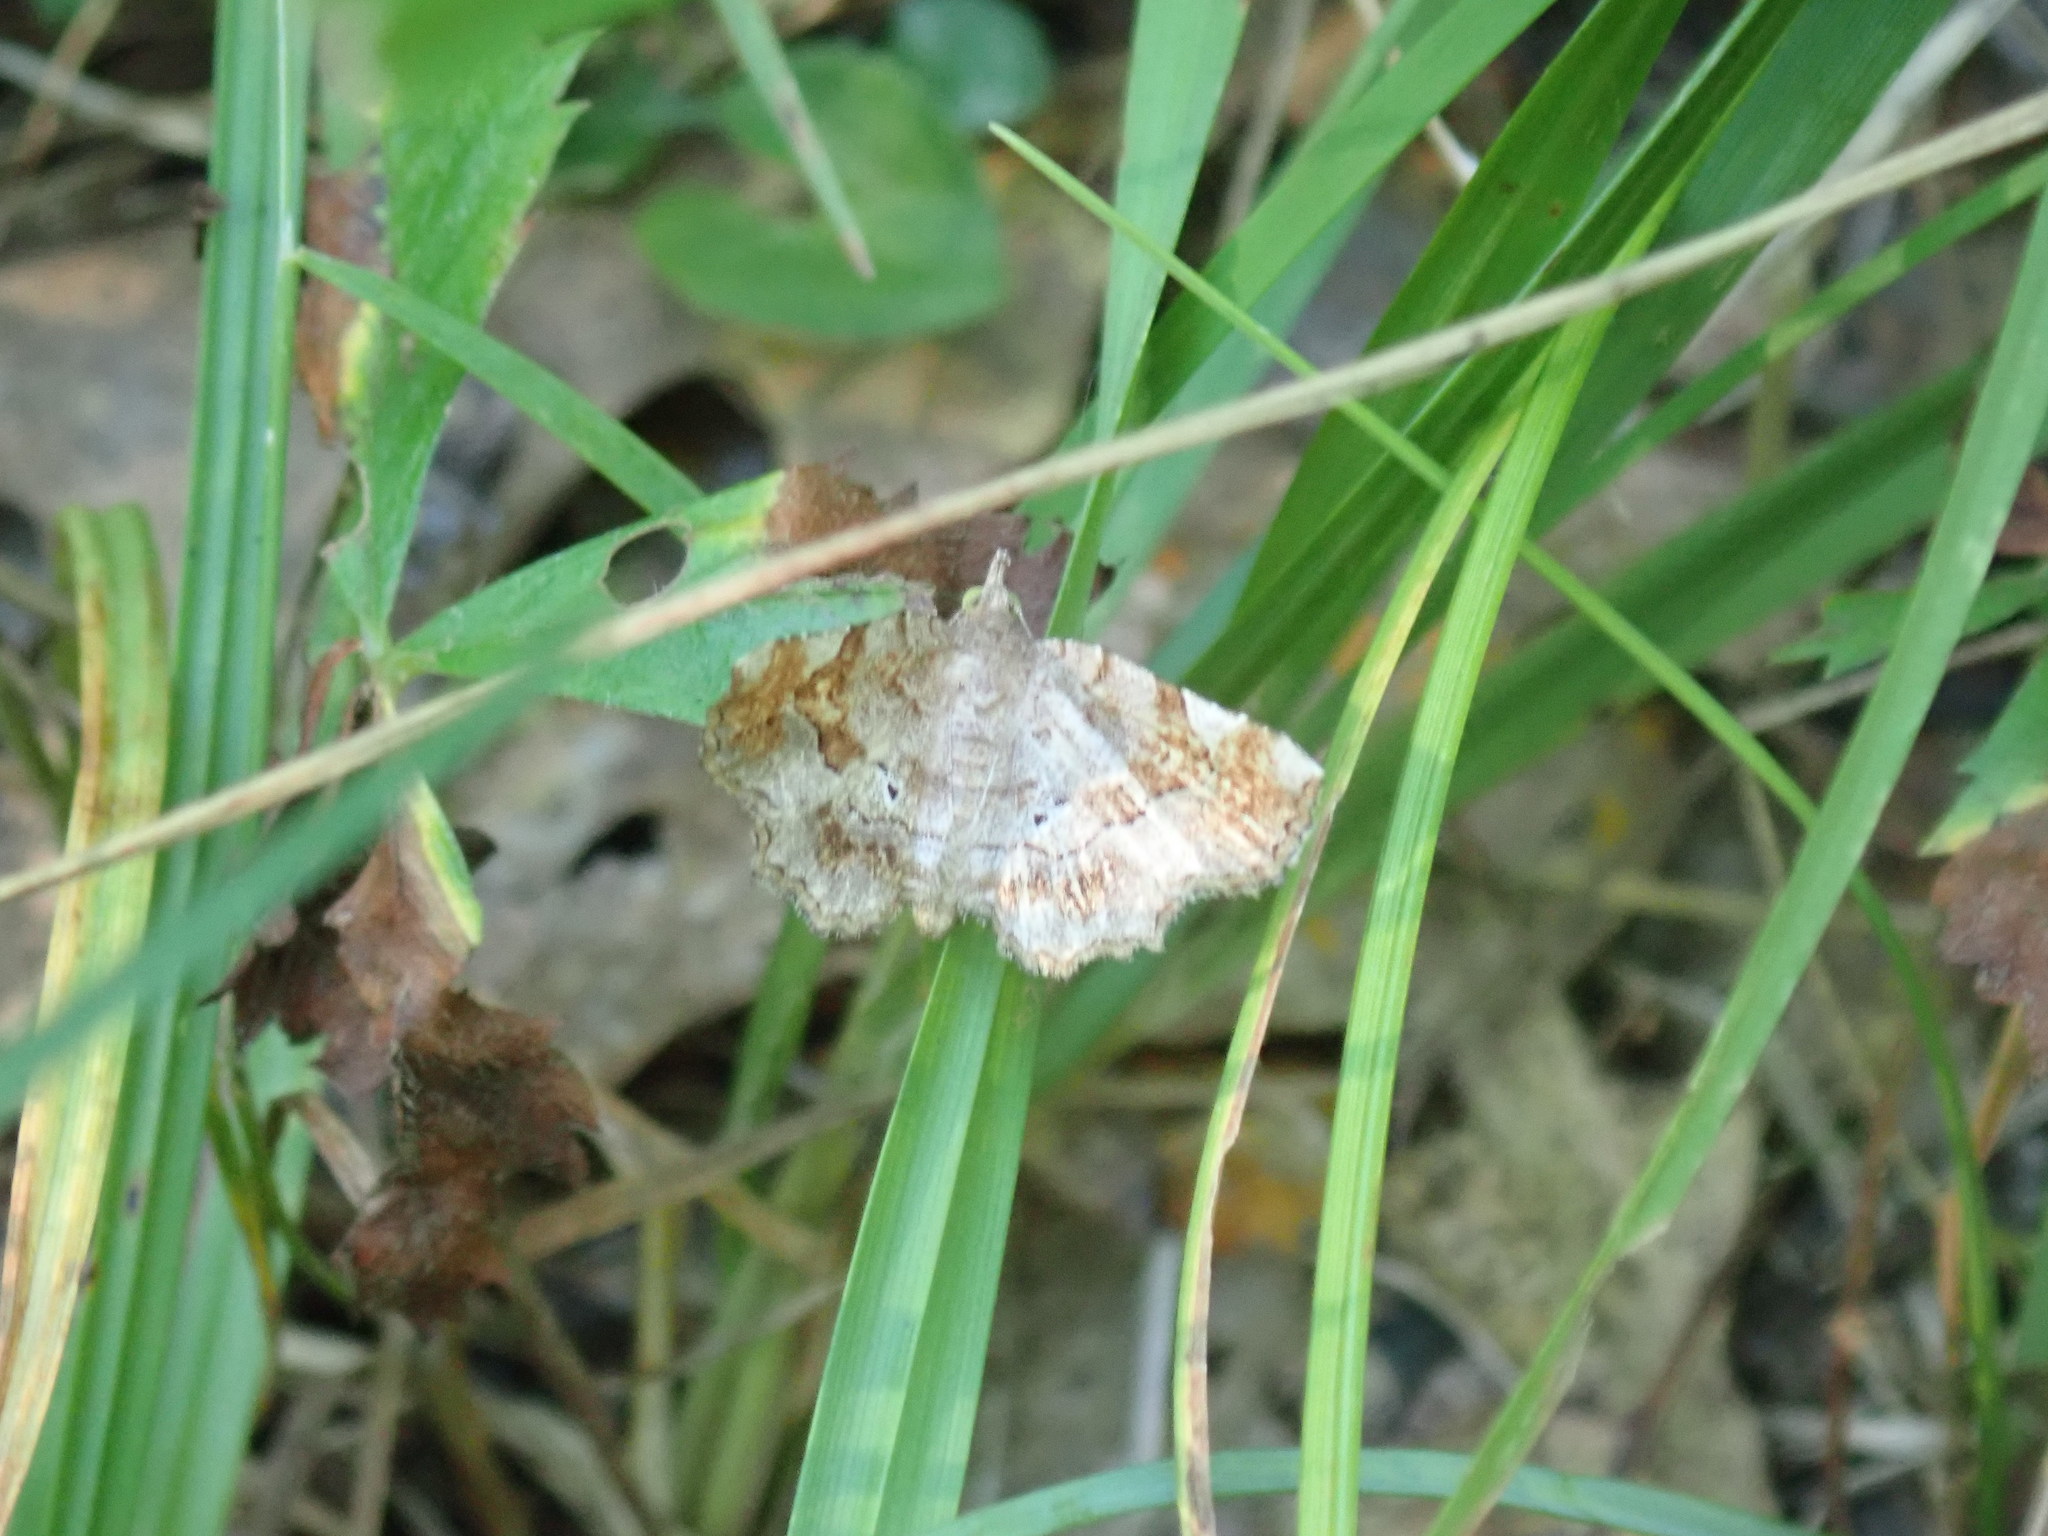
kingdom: Animalia
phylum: Arthropoda
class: Insecta
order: Lepidoptera
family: Erebidae
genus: Pangrapta
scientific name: Pangrapta decoralis
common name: Decorated owlet
